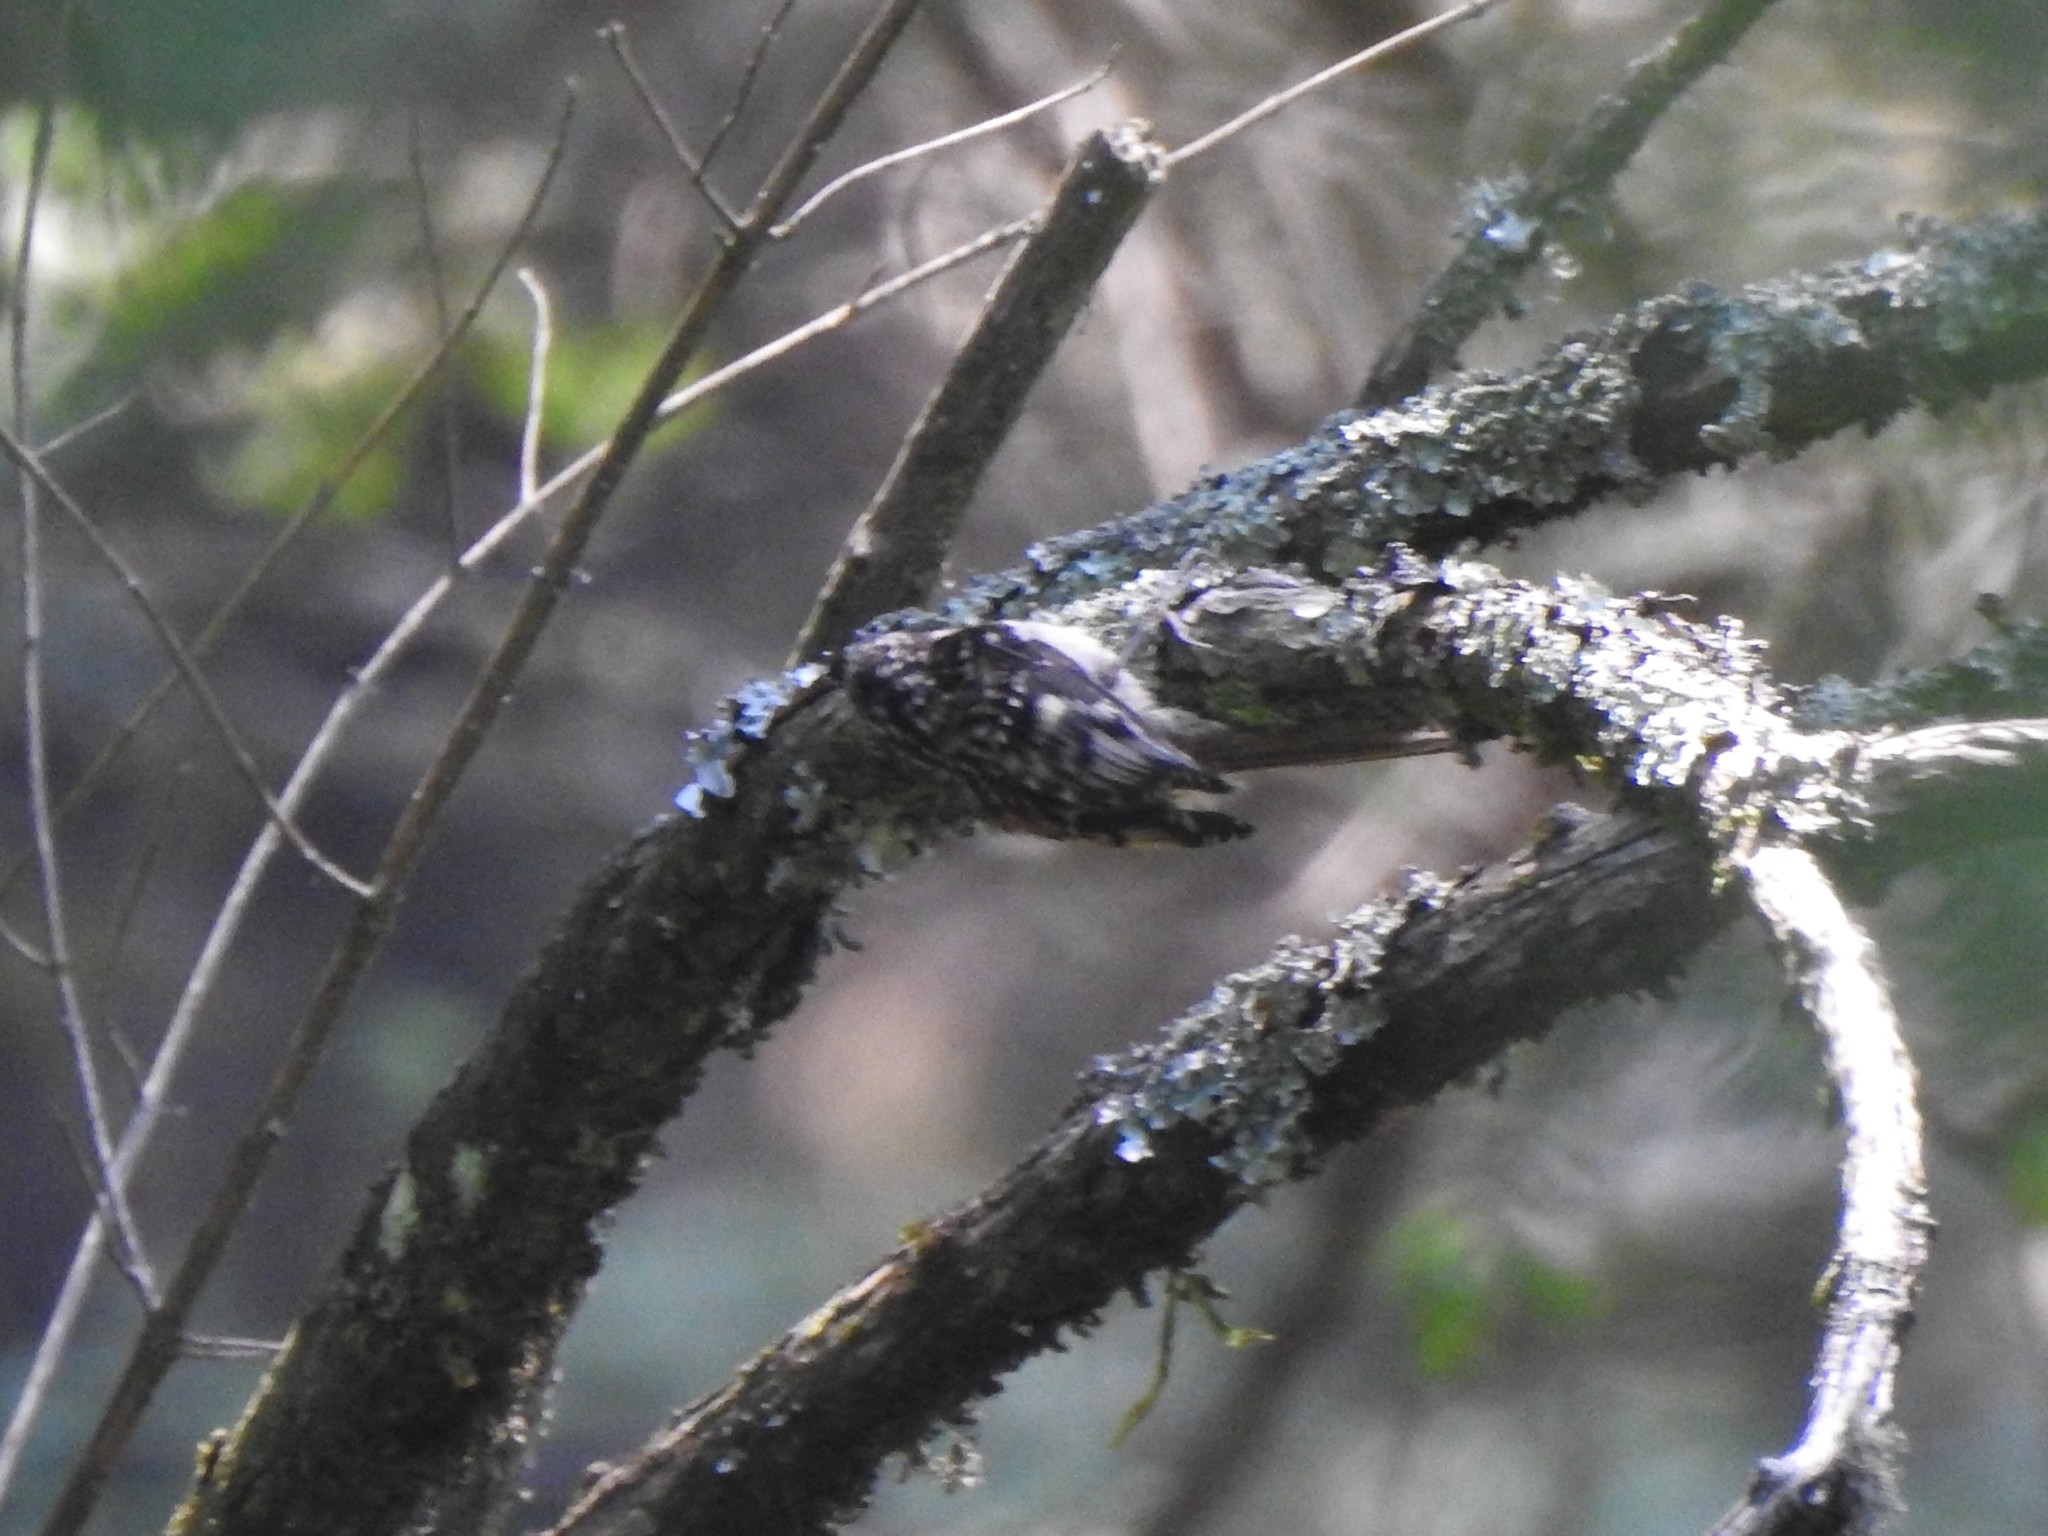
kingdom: Animalia
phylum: Chordata
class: Aves
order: Passeriformes
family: Certhiidae
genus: Certhia
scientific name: Certhia americana
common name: Brown creeper
